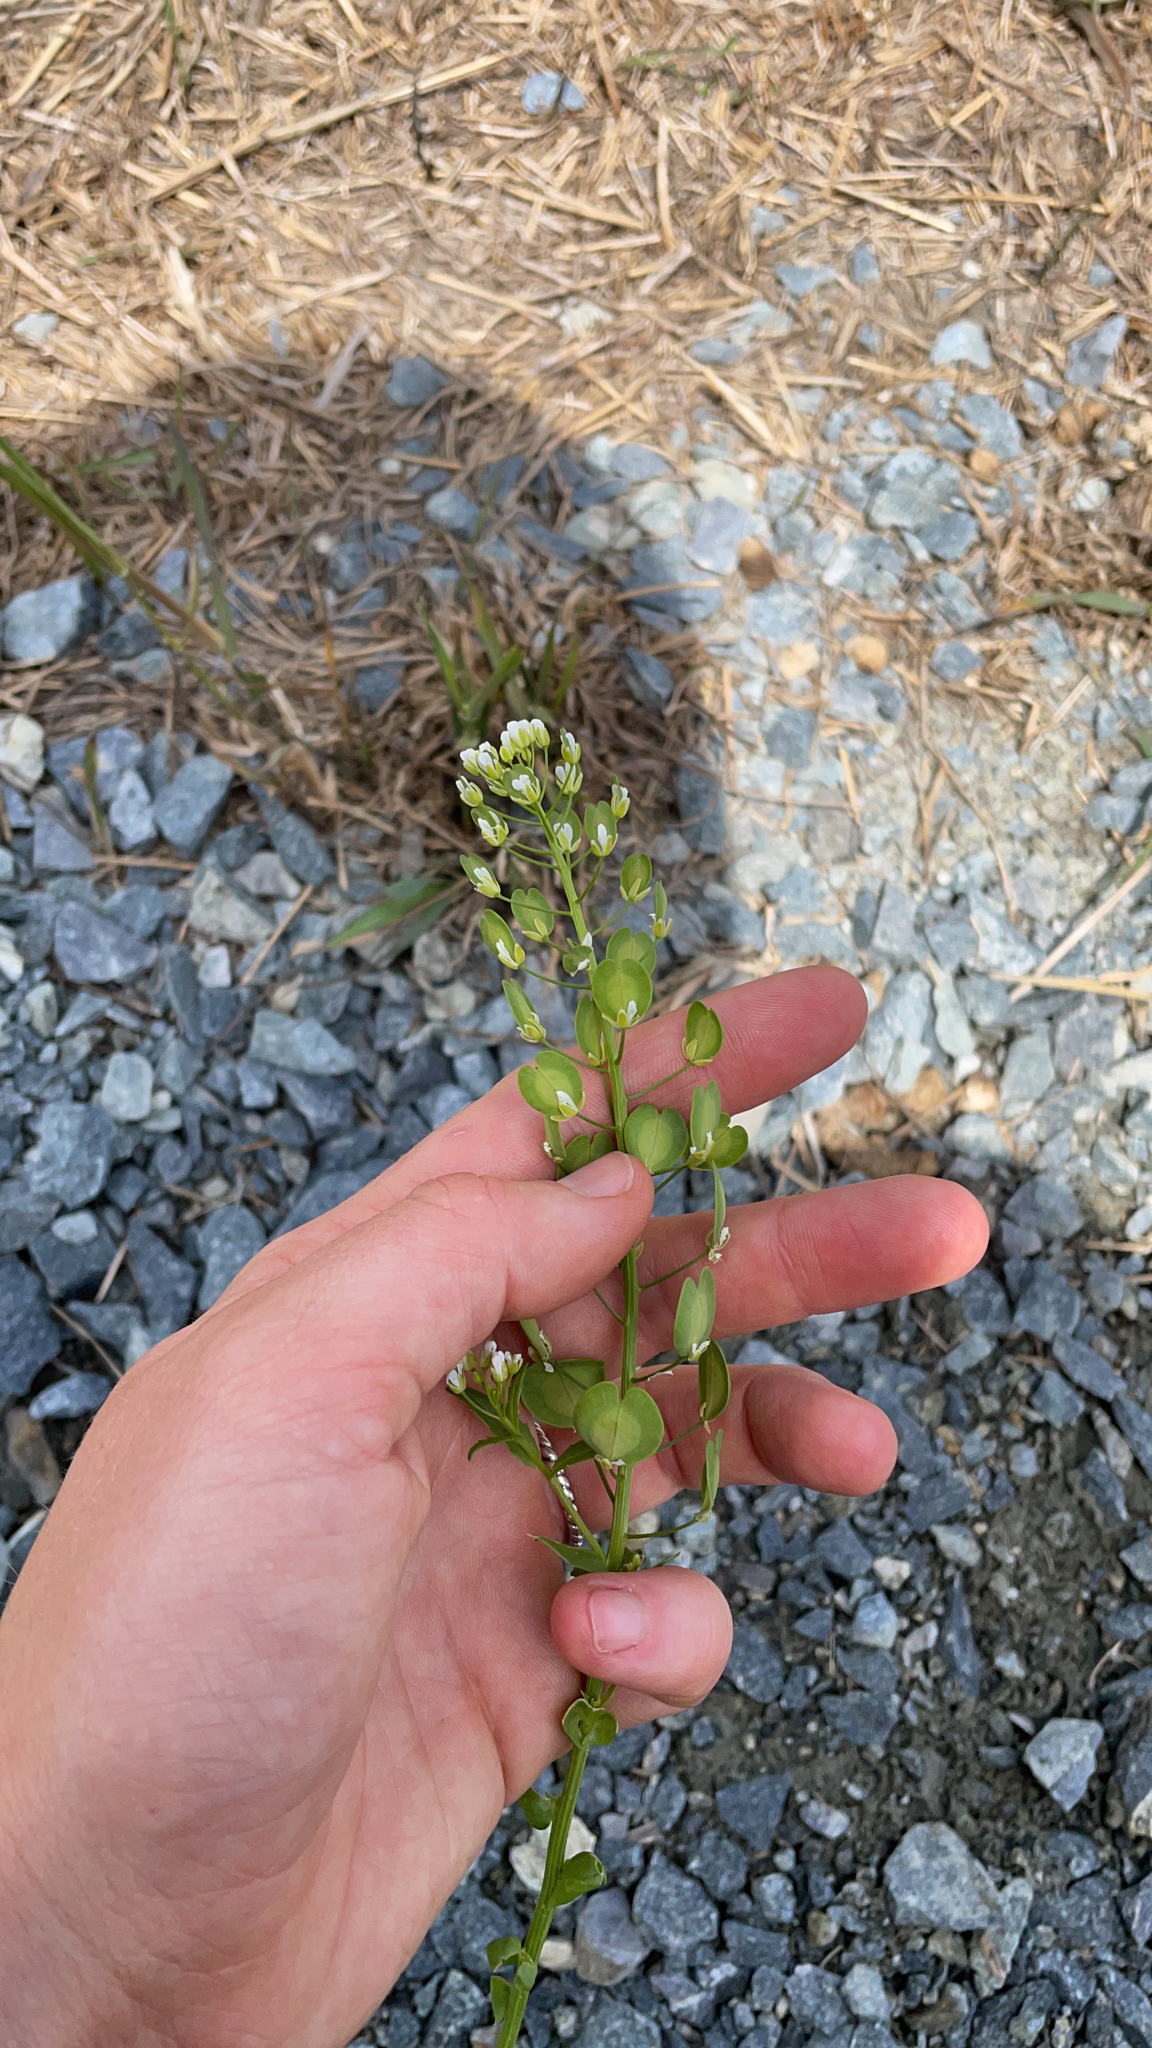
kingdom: Plantae
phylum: Tracheophyta
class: Magnoliopsida
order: Brassicales
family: Brassicaceae
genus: Thlaspi
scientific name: Thlaspi arvense
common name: Field pennycress
